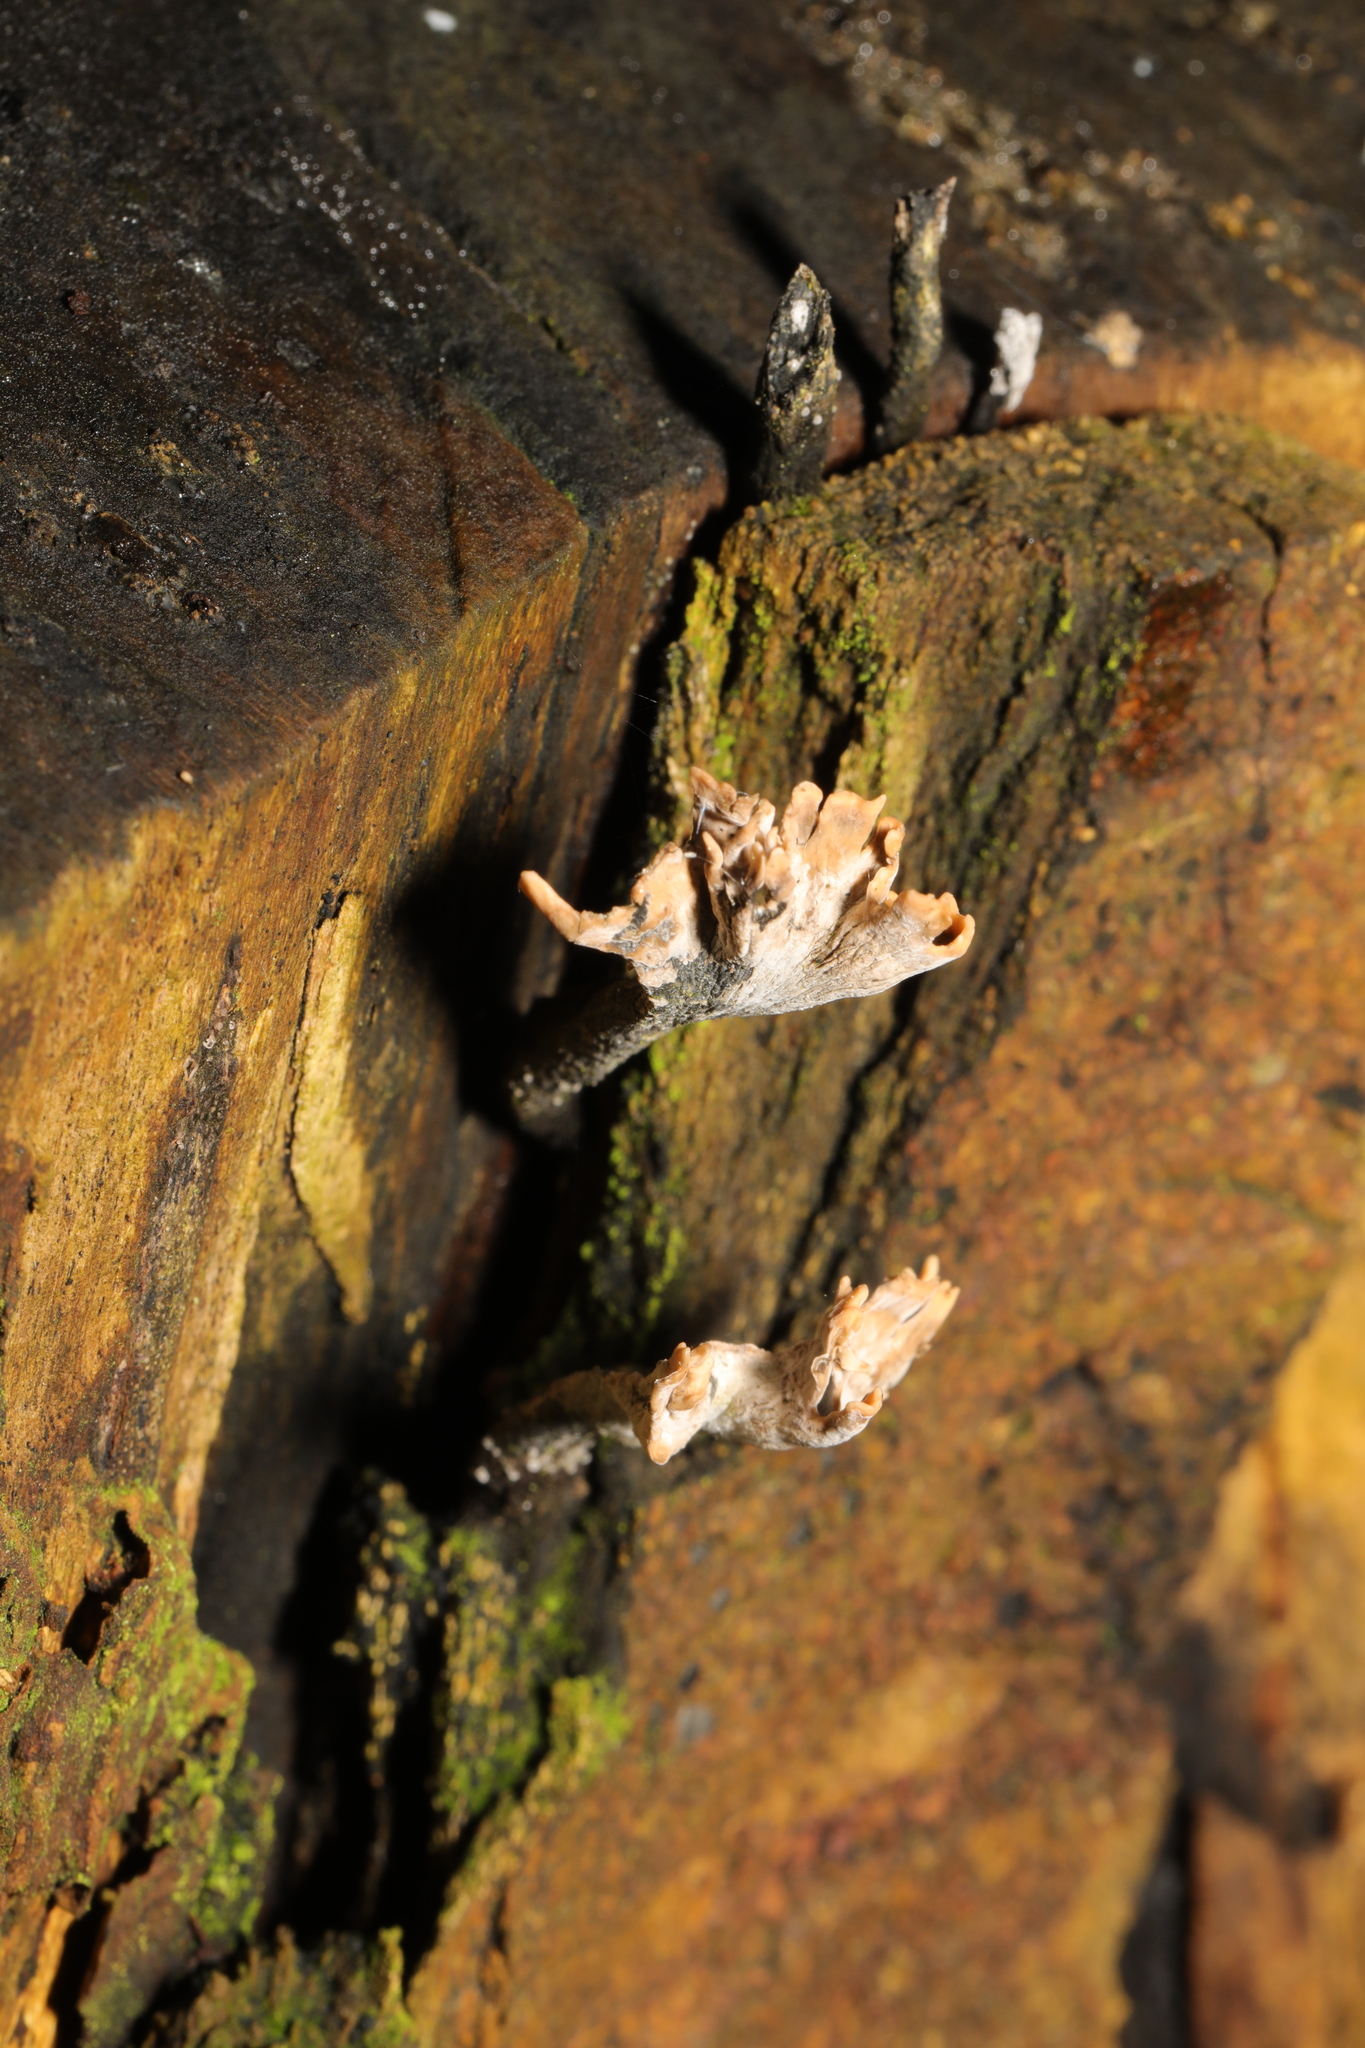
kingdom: Fungi
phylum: Ascomycota
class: Sordariomycetes
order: Xylariales
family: Xylariaceae
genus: Xylaria
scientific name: Xylaria hypoxylon
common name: Candle-snuff fungus
